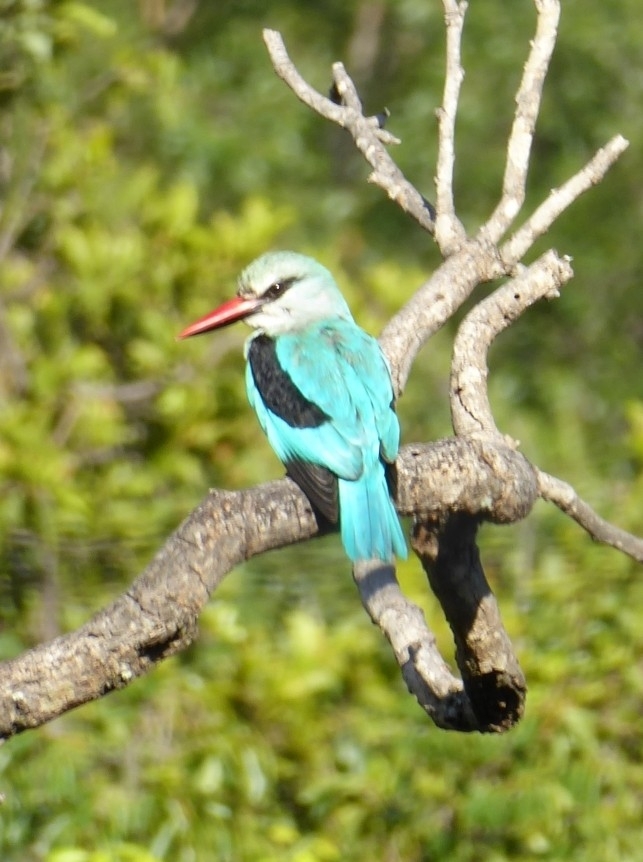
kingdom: Animalia
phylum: Chordata
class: Aves
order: Coraciiformes
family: Alcedinidae
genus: Halcyon
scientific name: Halcyon senegalensis
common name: Woodland kingfisher
